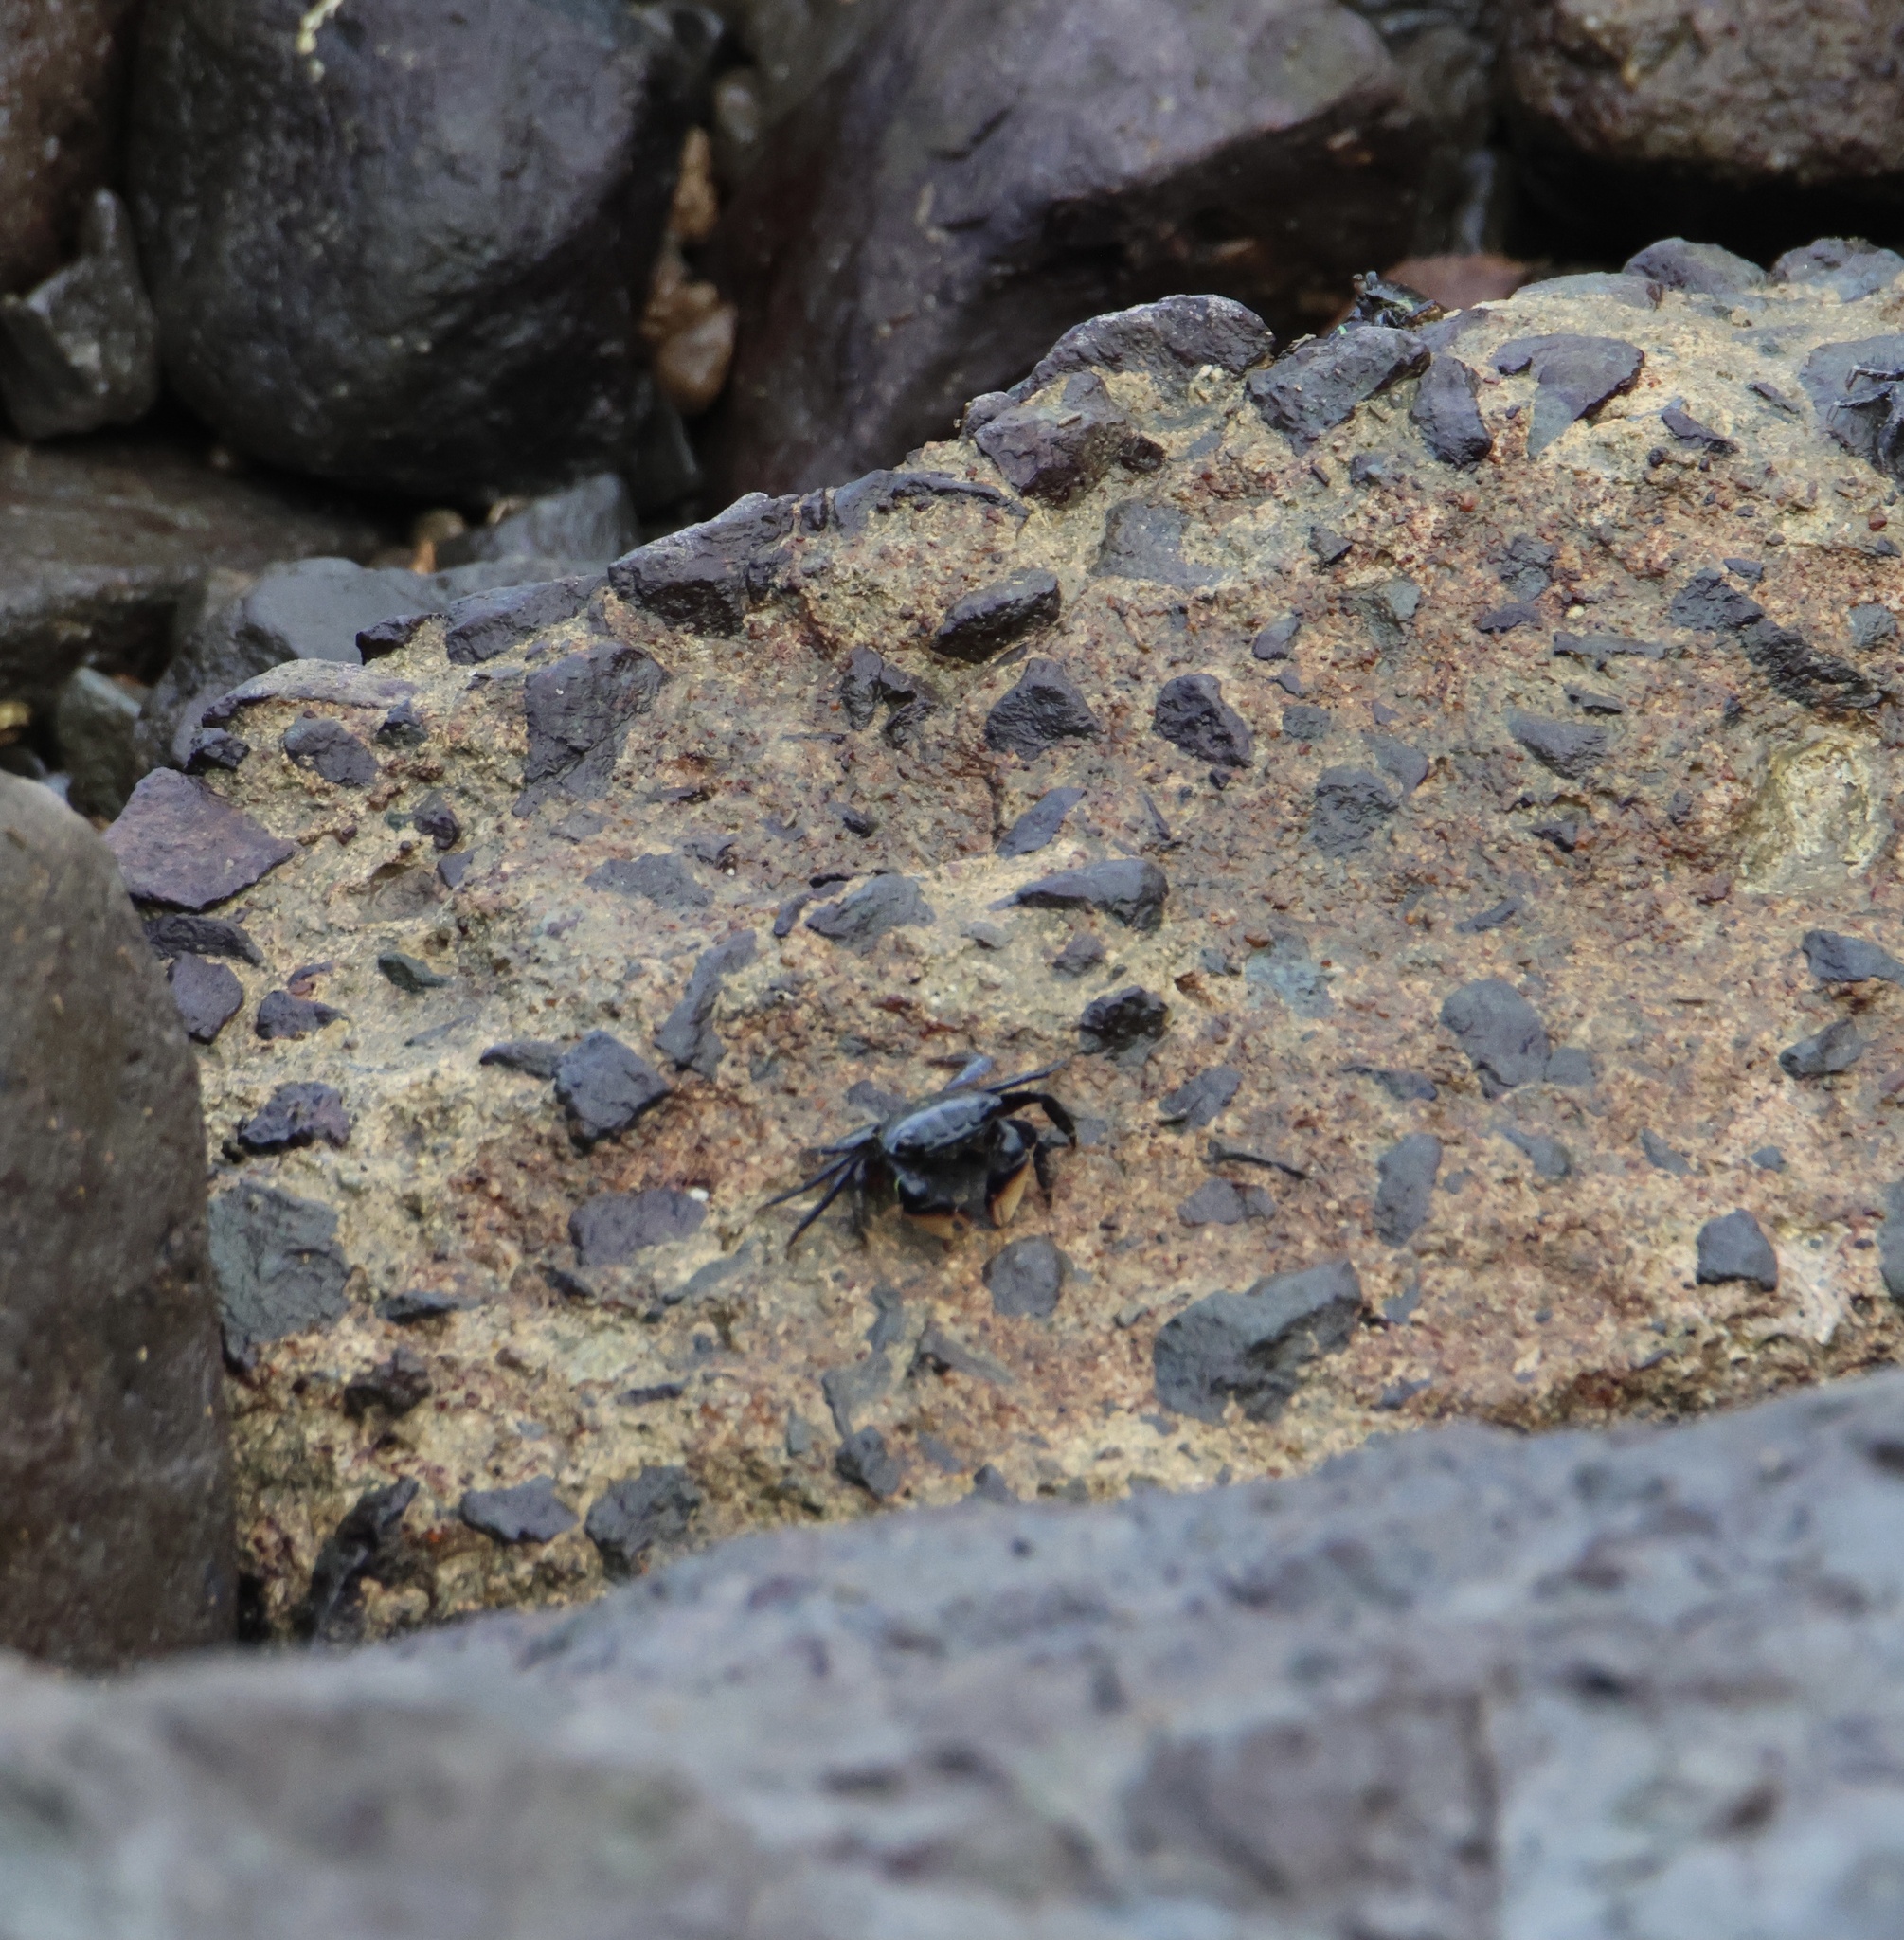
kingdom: Animalia
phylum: Arthropoda
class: Malacostraca
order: Decapoda
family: Grapsidae
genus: Pachygrapsus
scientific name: Pachygrapsus socius
